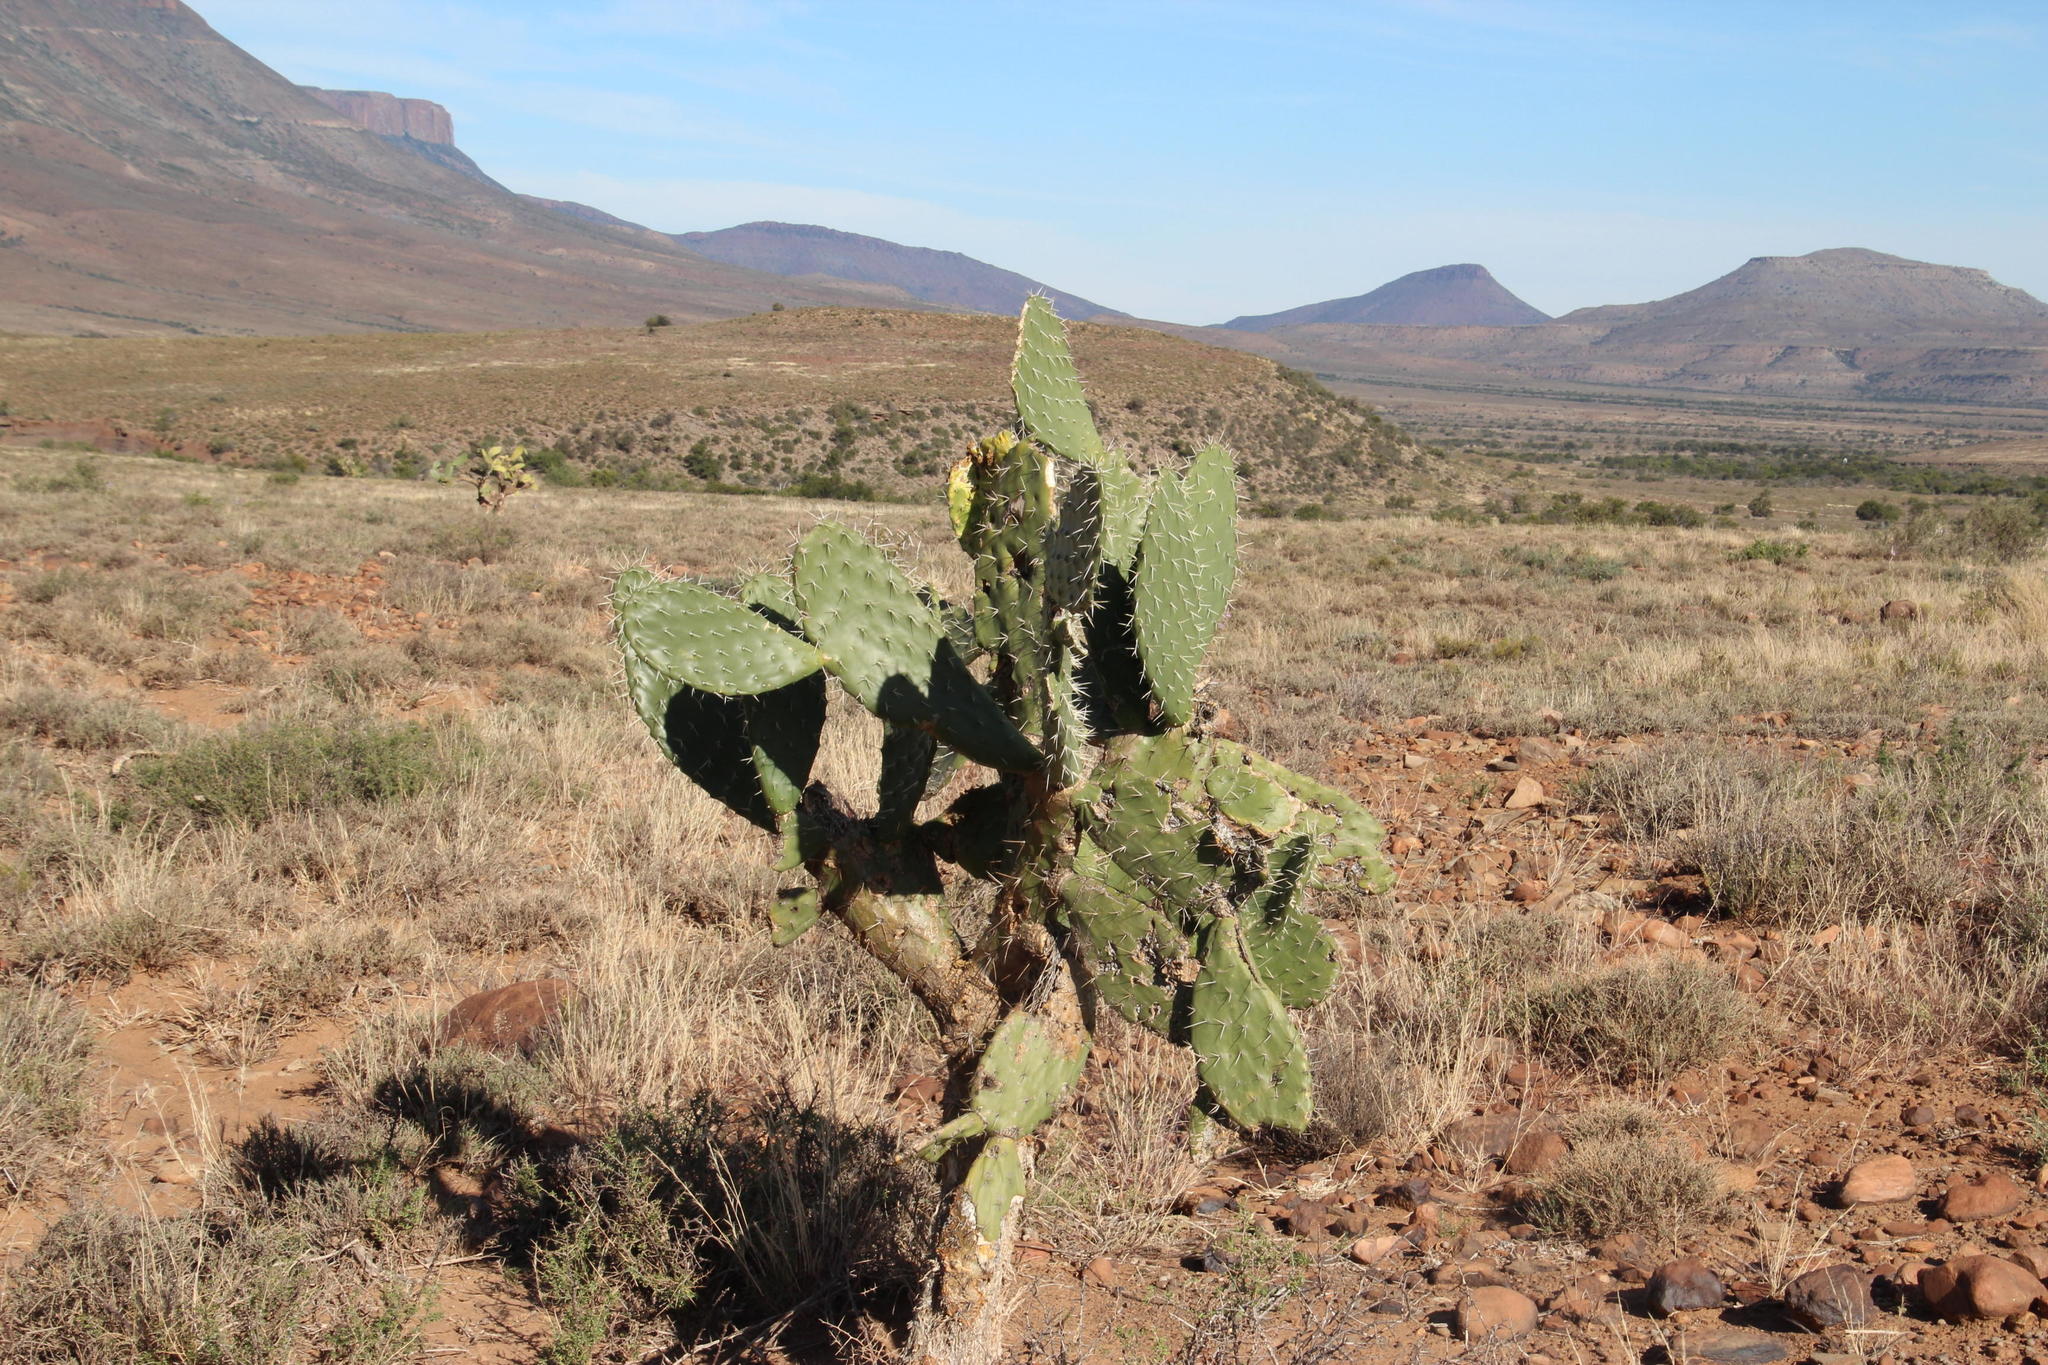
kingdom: Plantae
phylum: Tracheophyta
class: Magnoliopsida
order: Caryophyllales
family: Cactaceae
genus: Opuntia
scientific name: Opuntia ficus-indica
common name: Barbary fig
